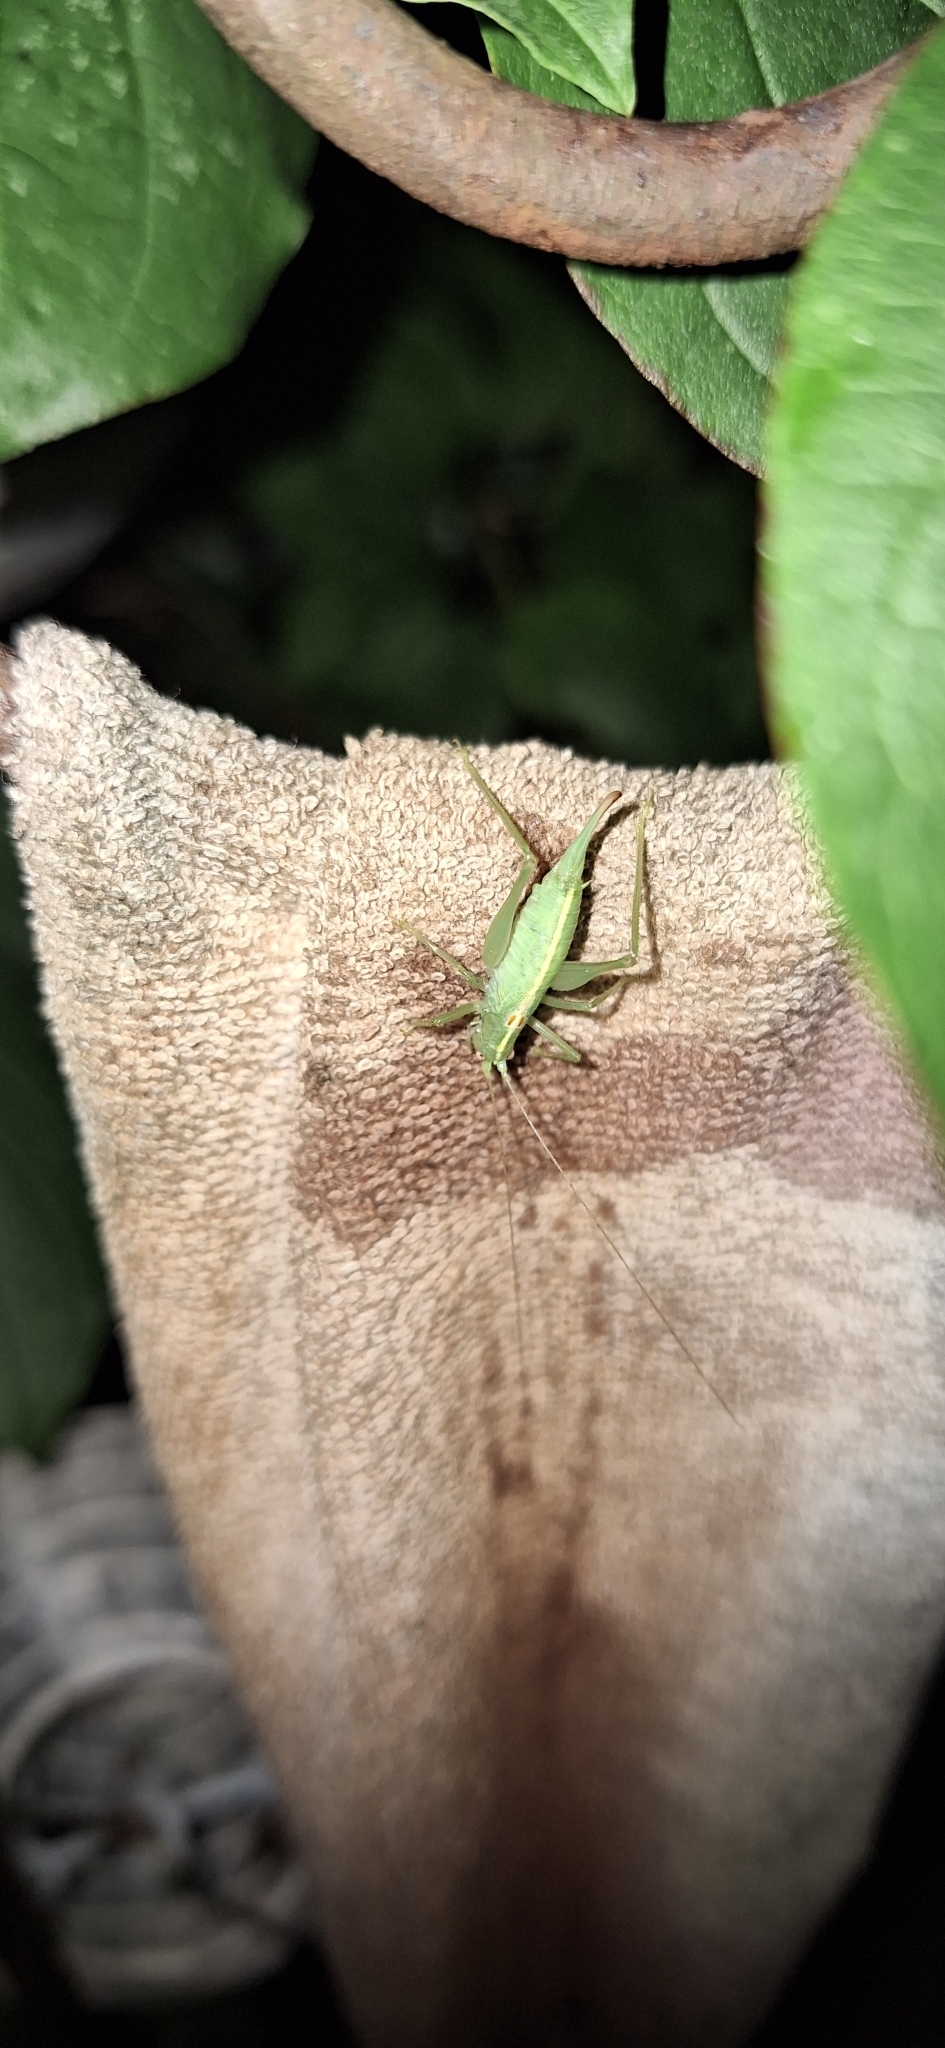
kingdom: Animalia
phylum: Arthropoda
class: Insecta
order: Orthoptera
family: Tettigoniidae
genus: Meconema
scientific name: Meconema meridionale
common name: Southern oak bush-cricket
